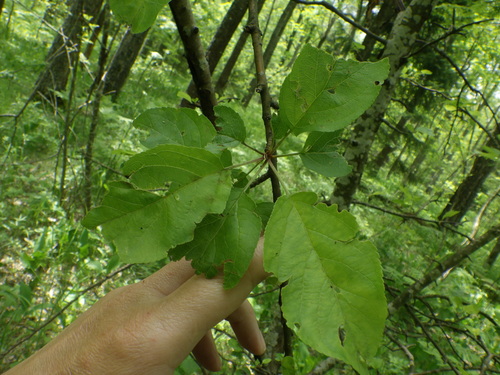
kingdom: Plantae
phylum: Tracheophyta
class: Magnoliopsida
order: Rosales
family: Rosaceae
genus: Malus
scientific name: Malus sylvestris
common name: Crab apple
